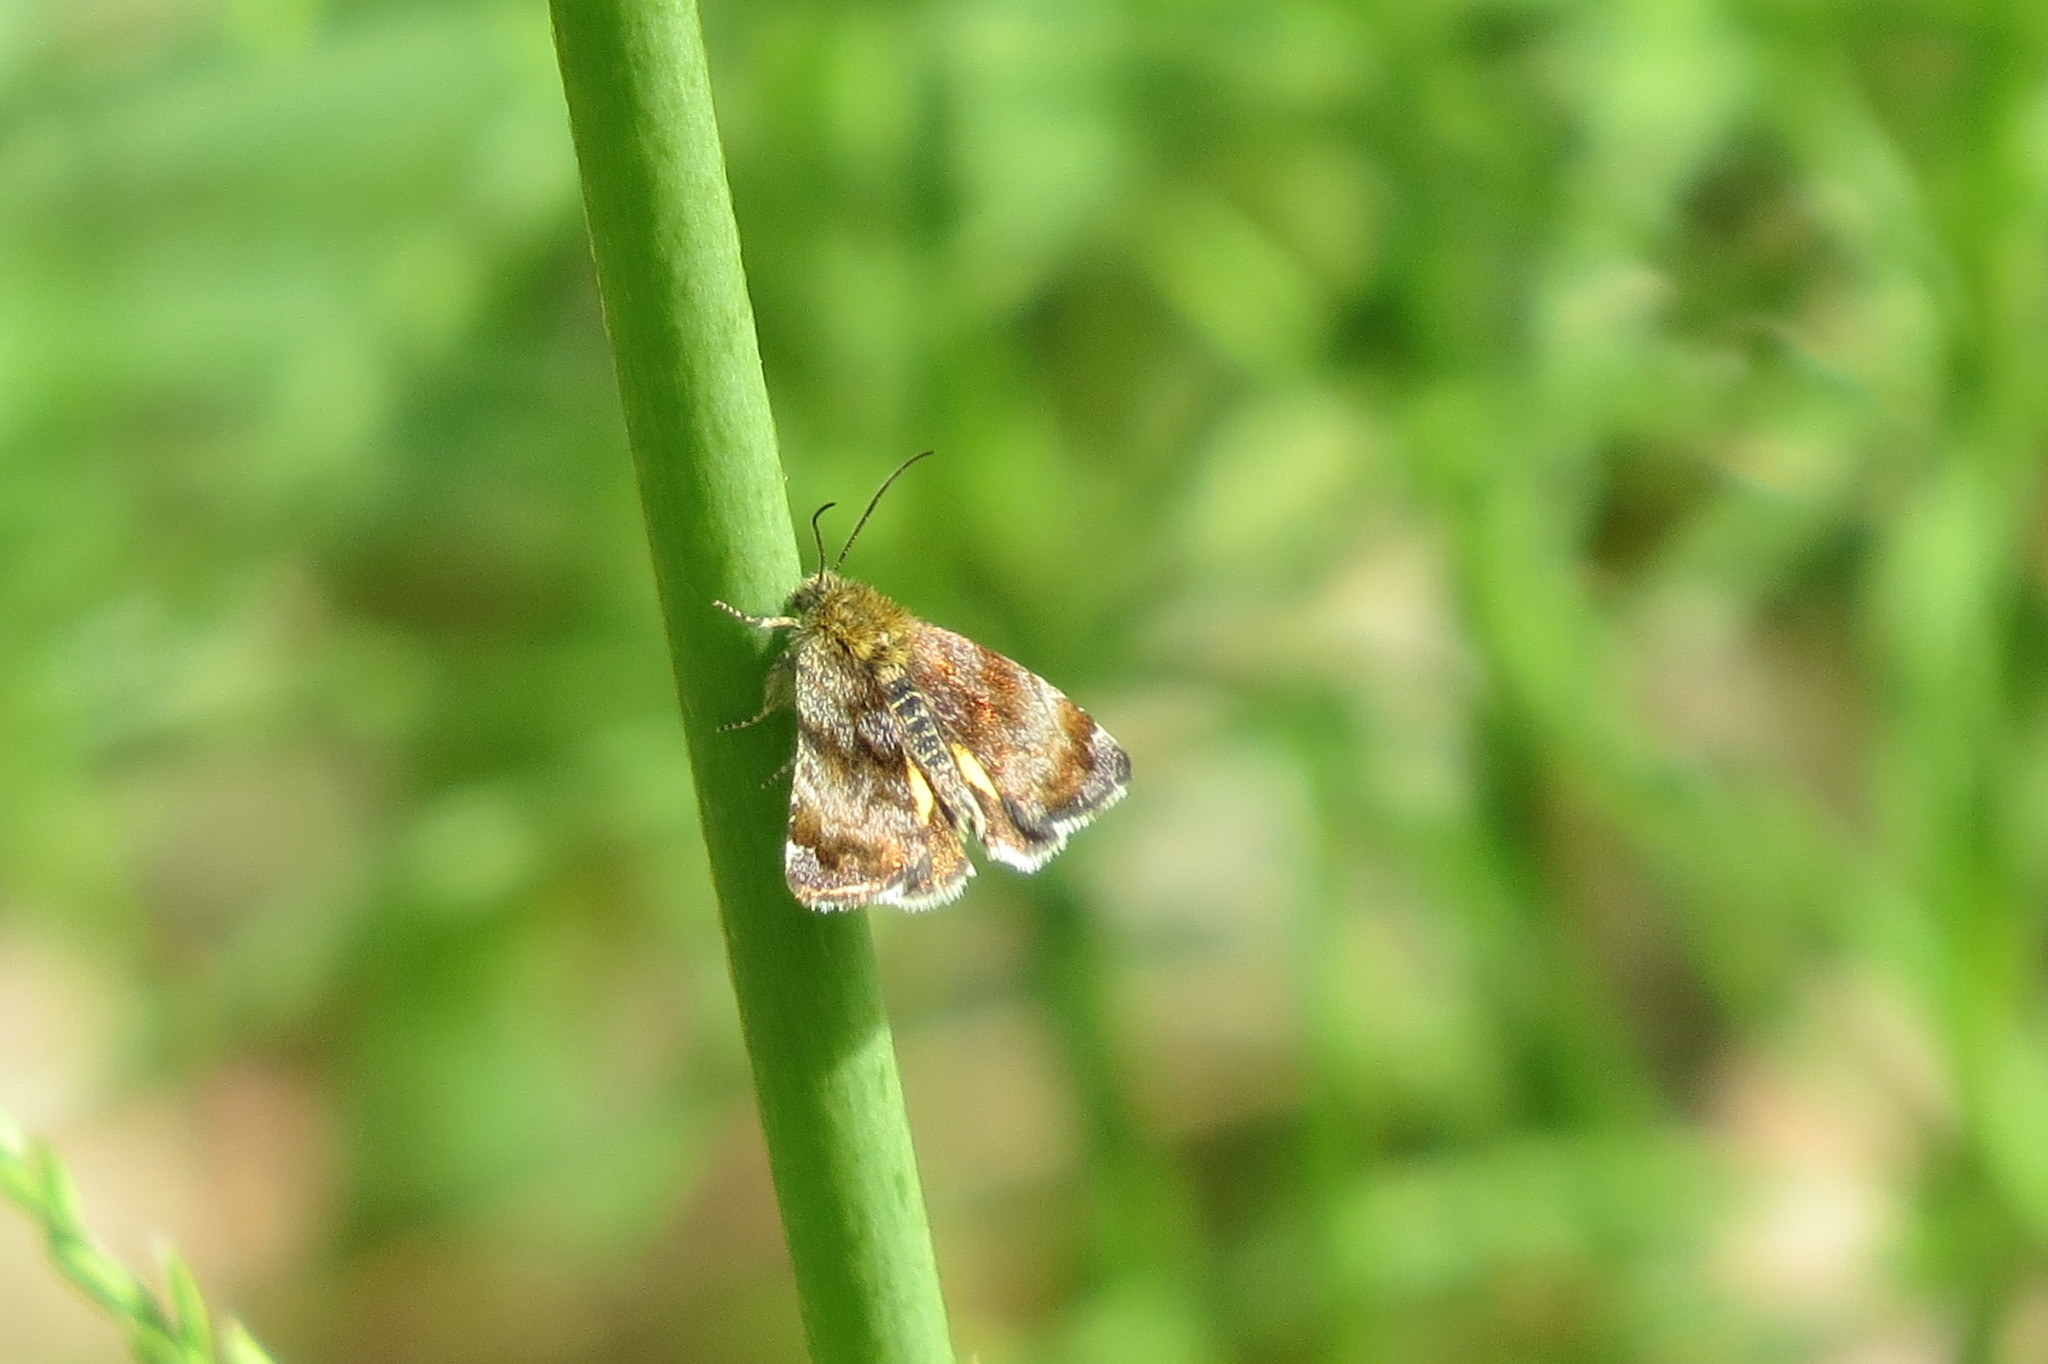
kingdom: Animalia
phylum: Arthropoda
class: Insecta
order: Lepidoptera
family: Noctuidae
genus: Panemeria
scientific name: Panemeria tenebrata
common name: Small yellow underwing
